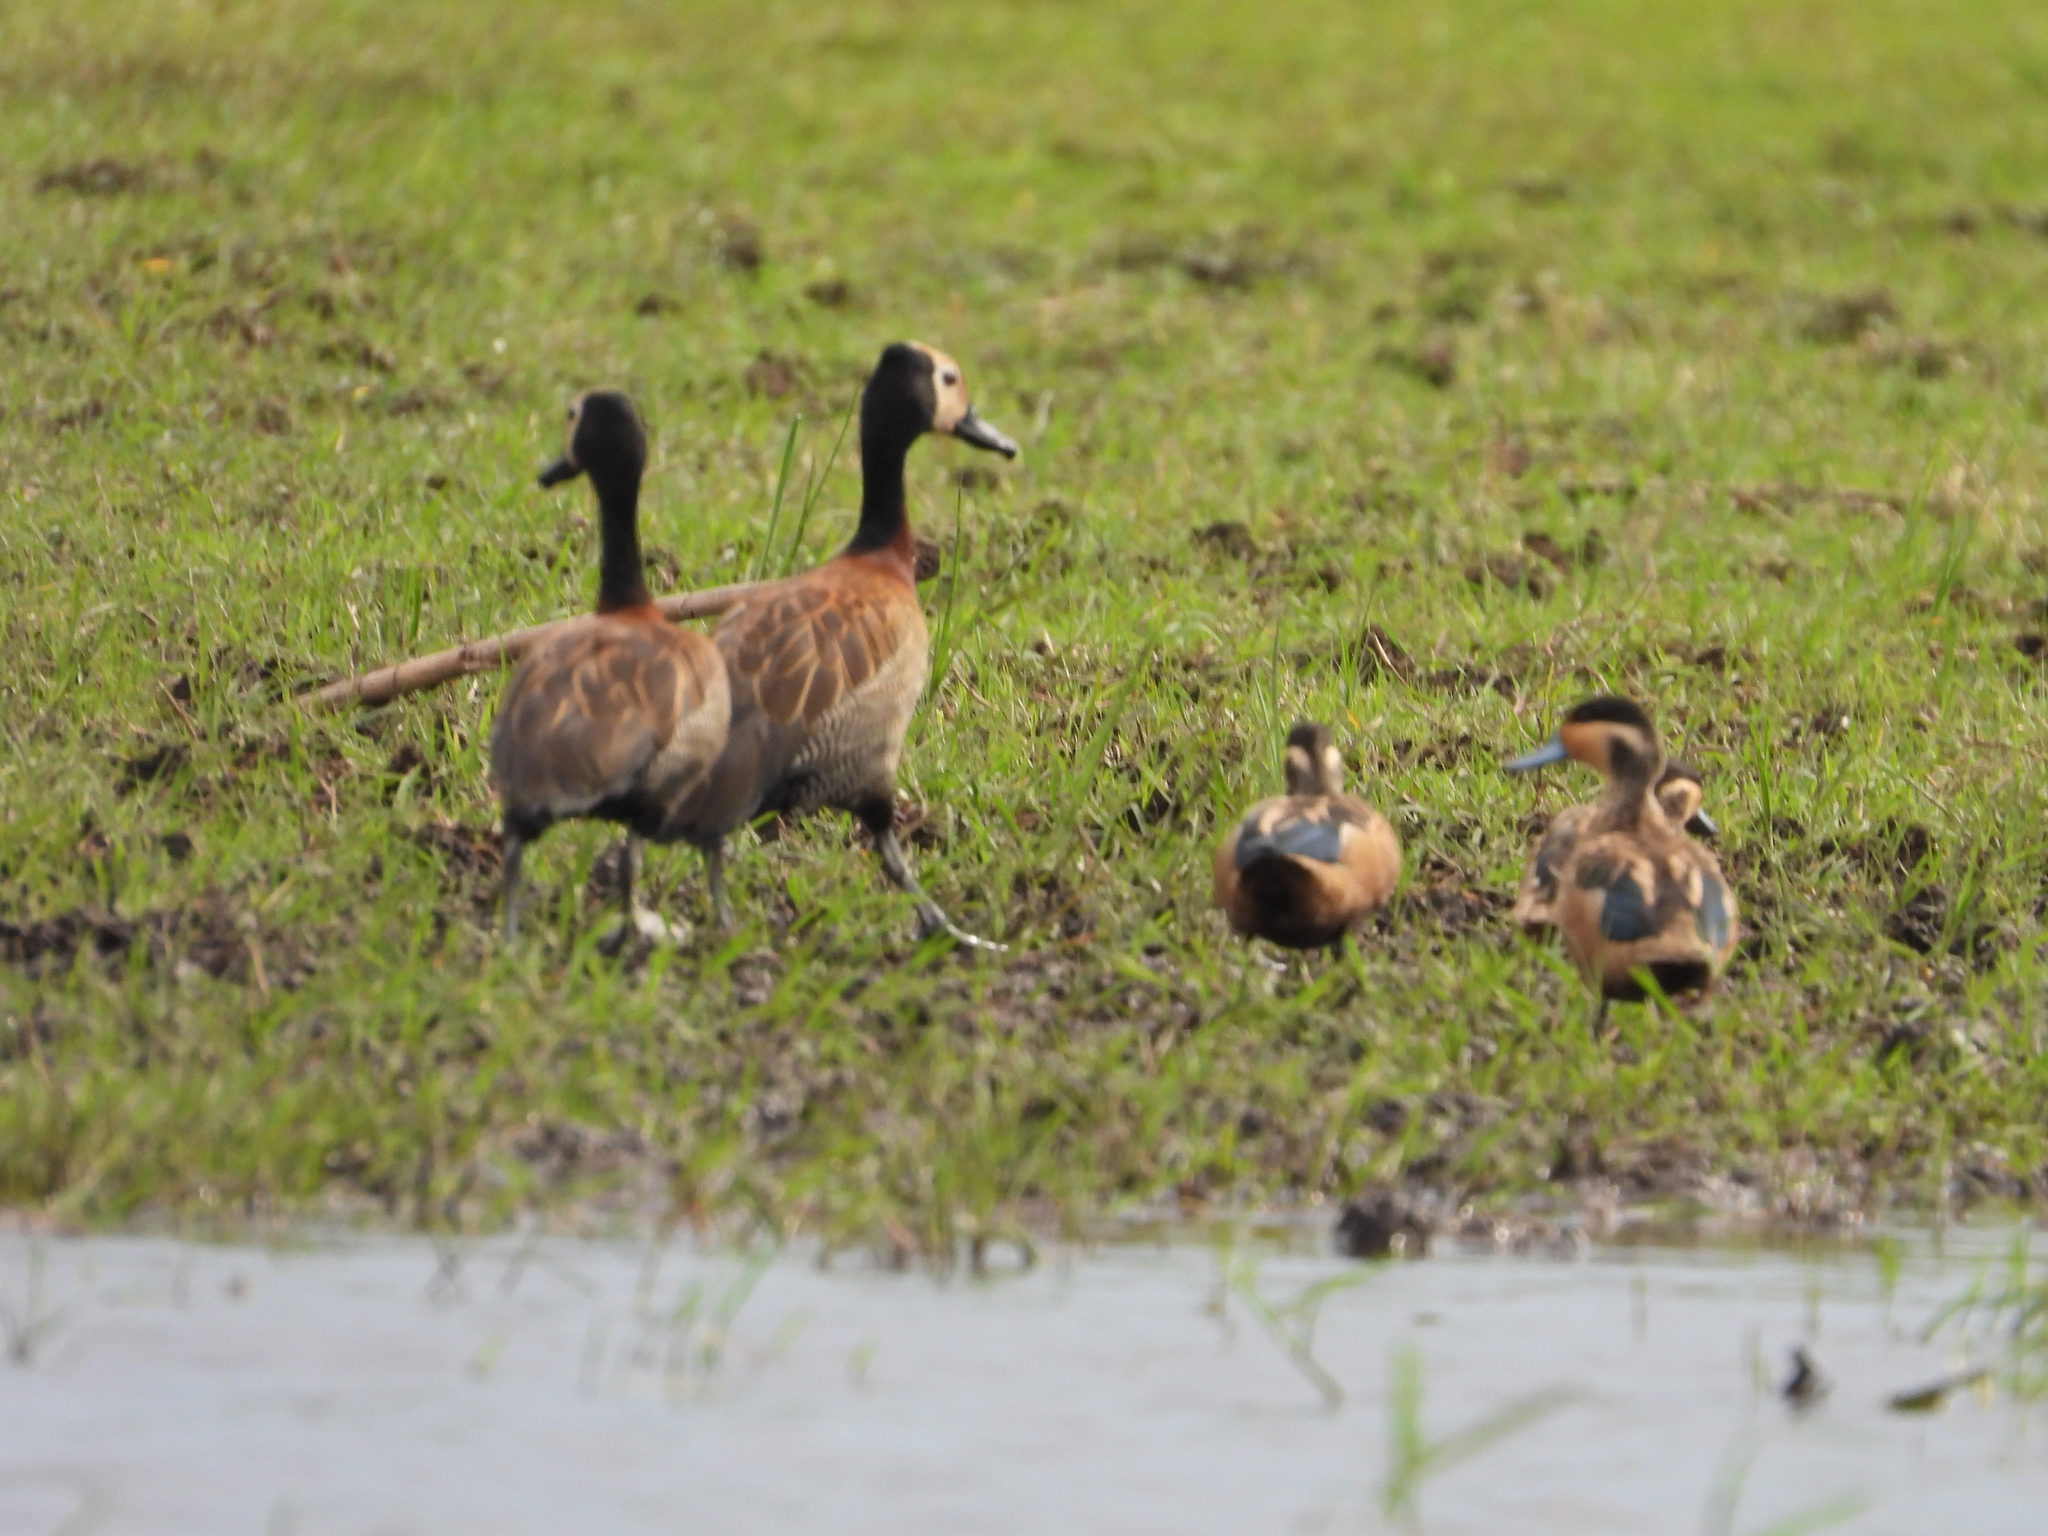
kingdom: Animalia
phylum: Chordata
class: Aves
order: Anseriformes
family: Anatidae
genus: Spatula
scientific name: Spatula hottentota
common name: Blue-billed teal
